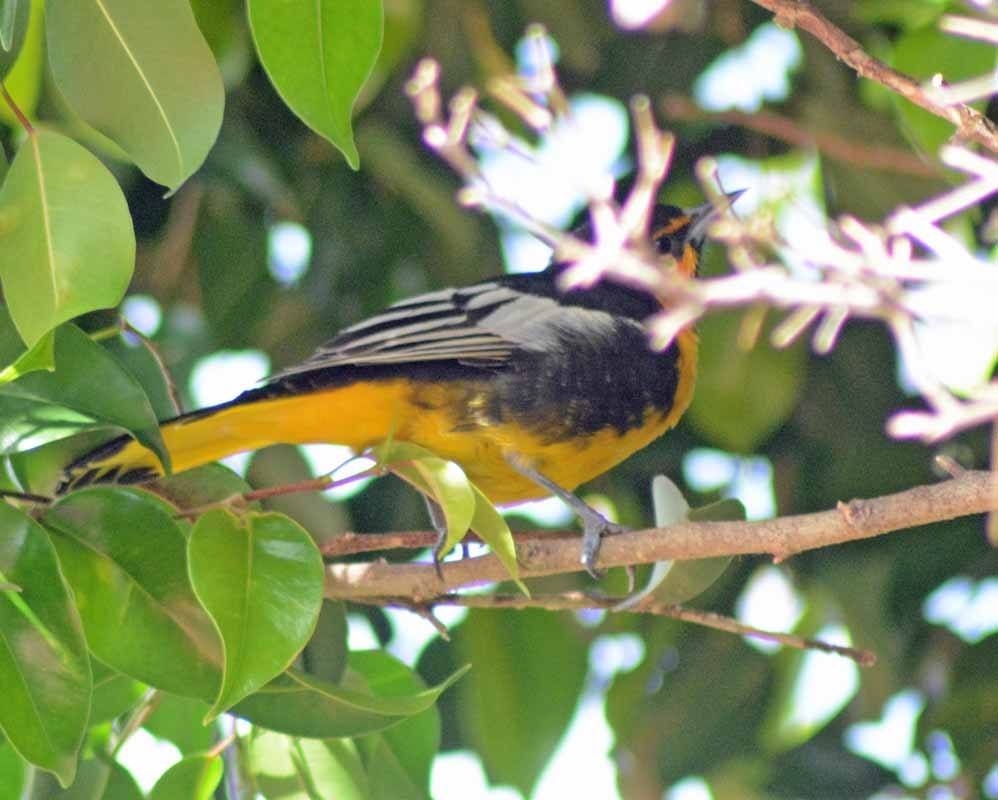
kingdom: Animalia
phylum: Chordata
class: Aves
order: Passeriformes
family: Icteridae
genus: Icterus
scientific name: Icterus abeillei
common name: Black-backed oriole
